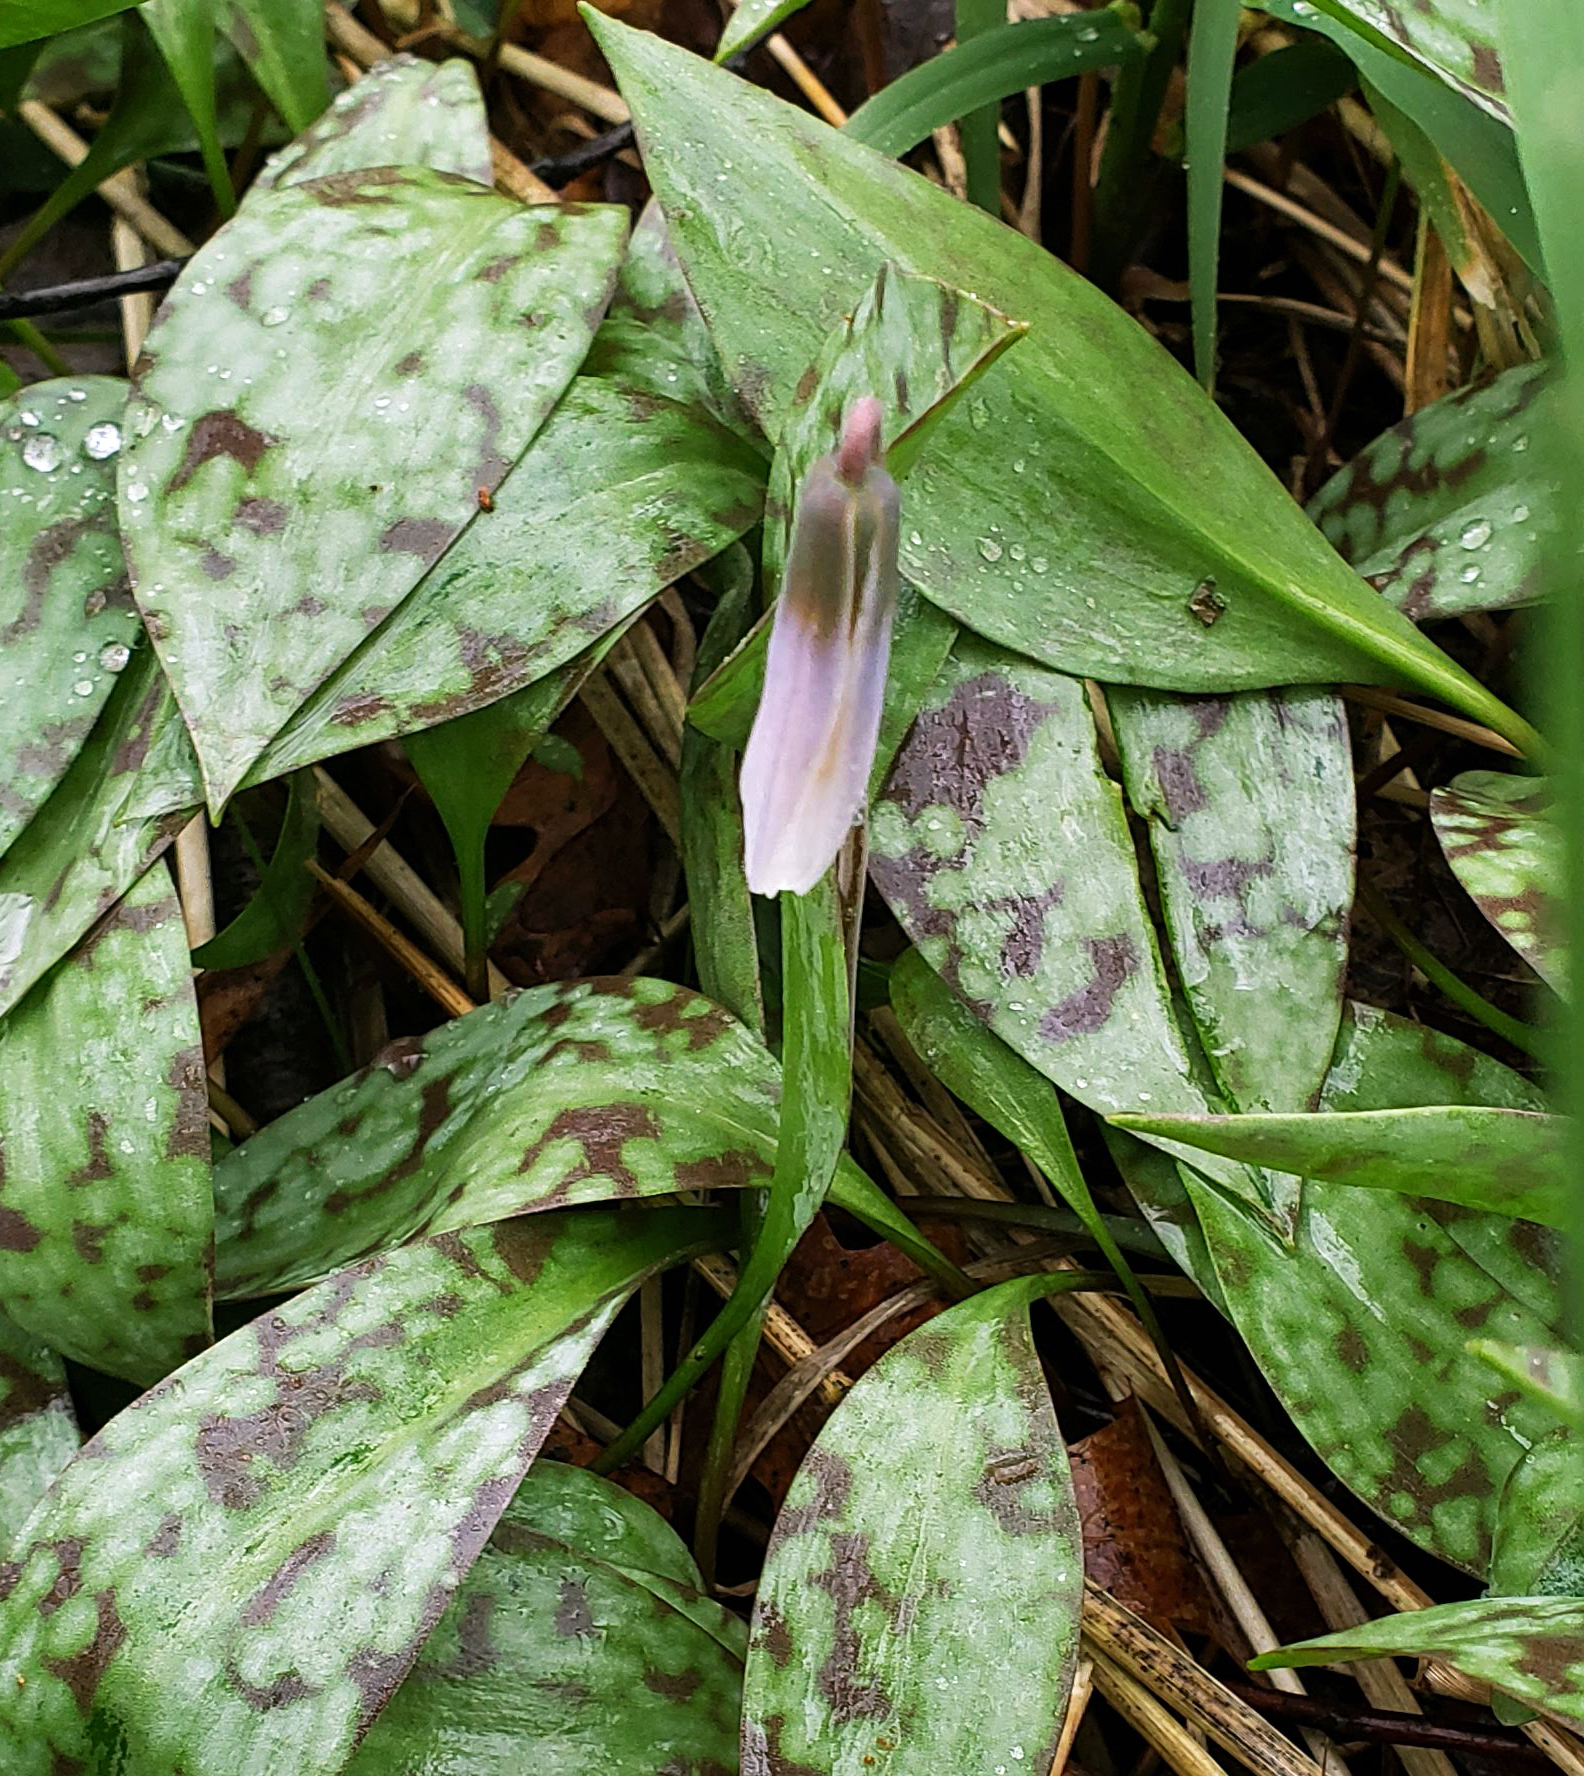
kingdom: Plantae
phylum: Tracheophyta
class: Liliopsida
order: Liliales
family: Liliaceae
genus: Erythronium
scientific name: Erythronium albidum
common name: White trout-lily
